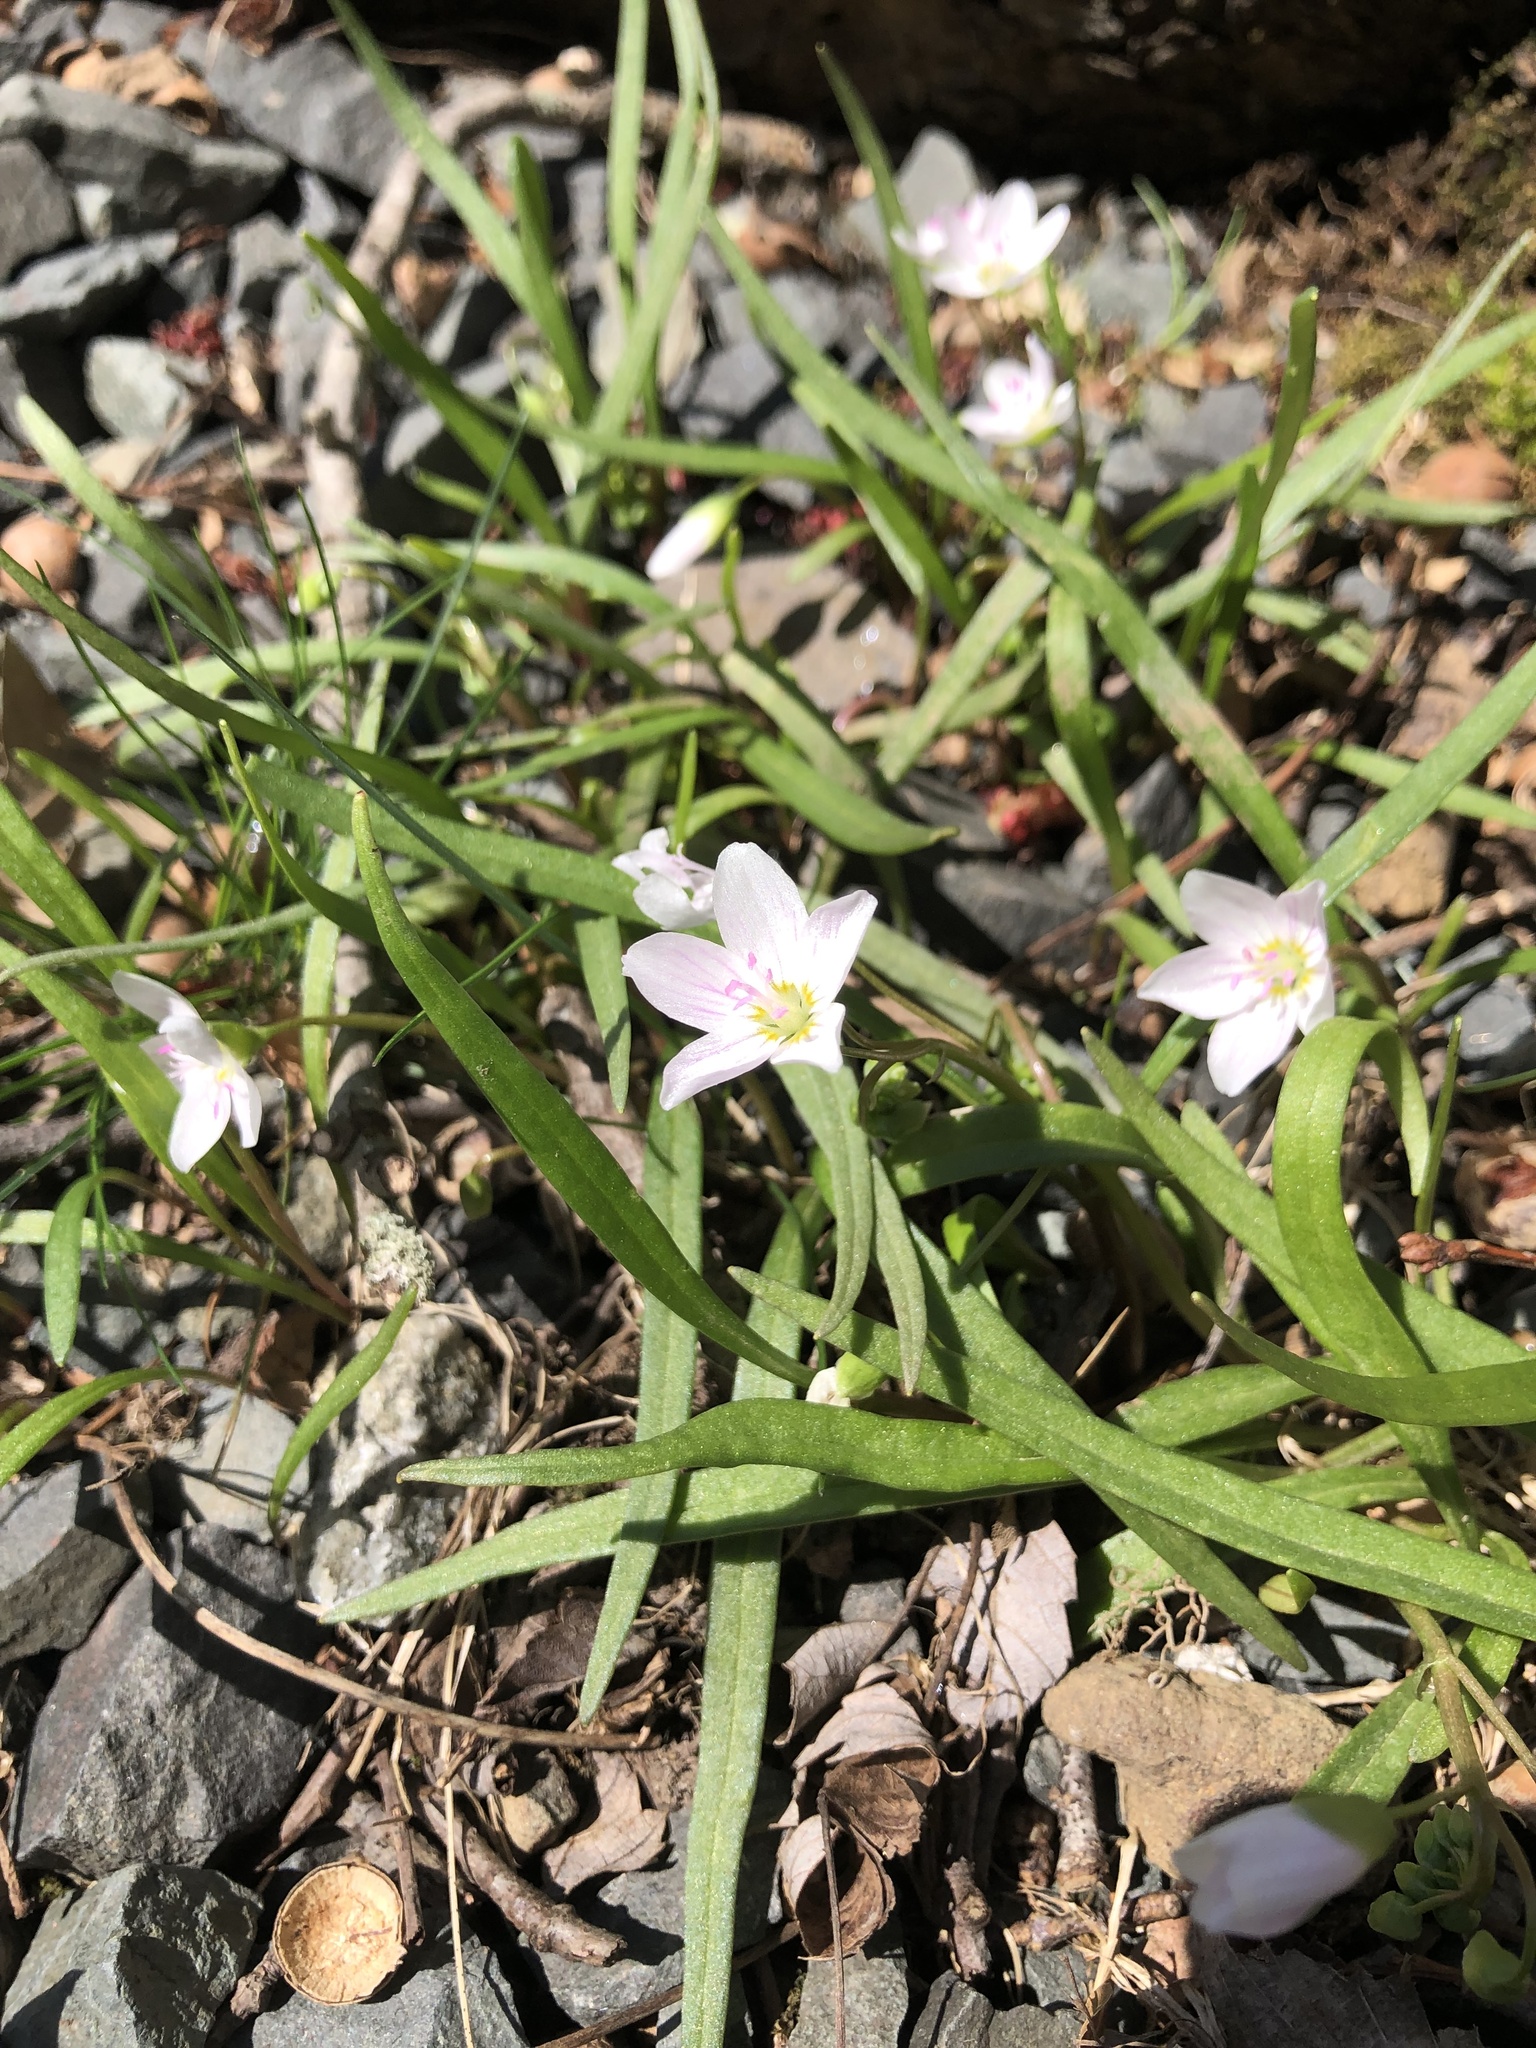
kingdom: Plantae
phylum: Tracheophyta
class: Magnoliopsida
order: Caryophyllales
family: Montiaceae
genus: Claytonia
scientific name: Claytonia virginica
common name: Virginia springbeauty
